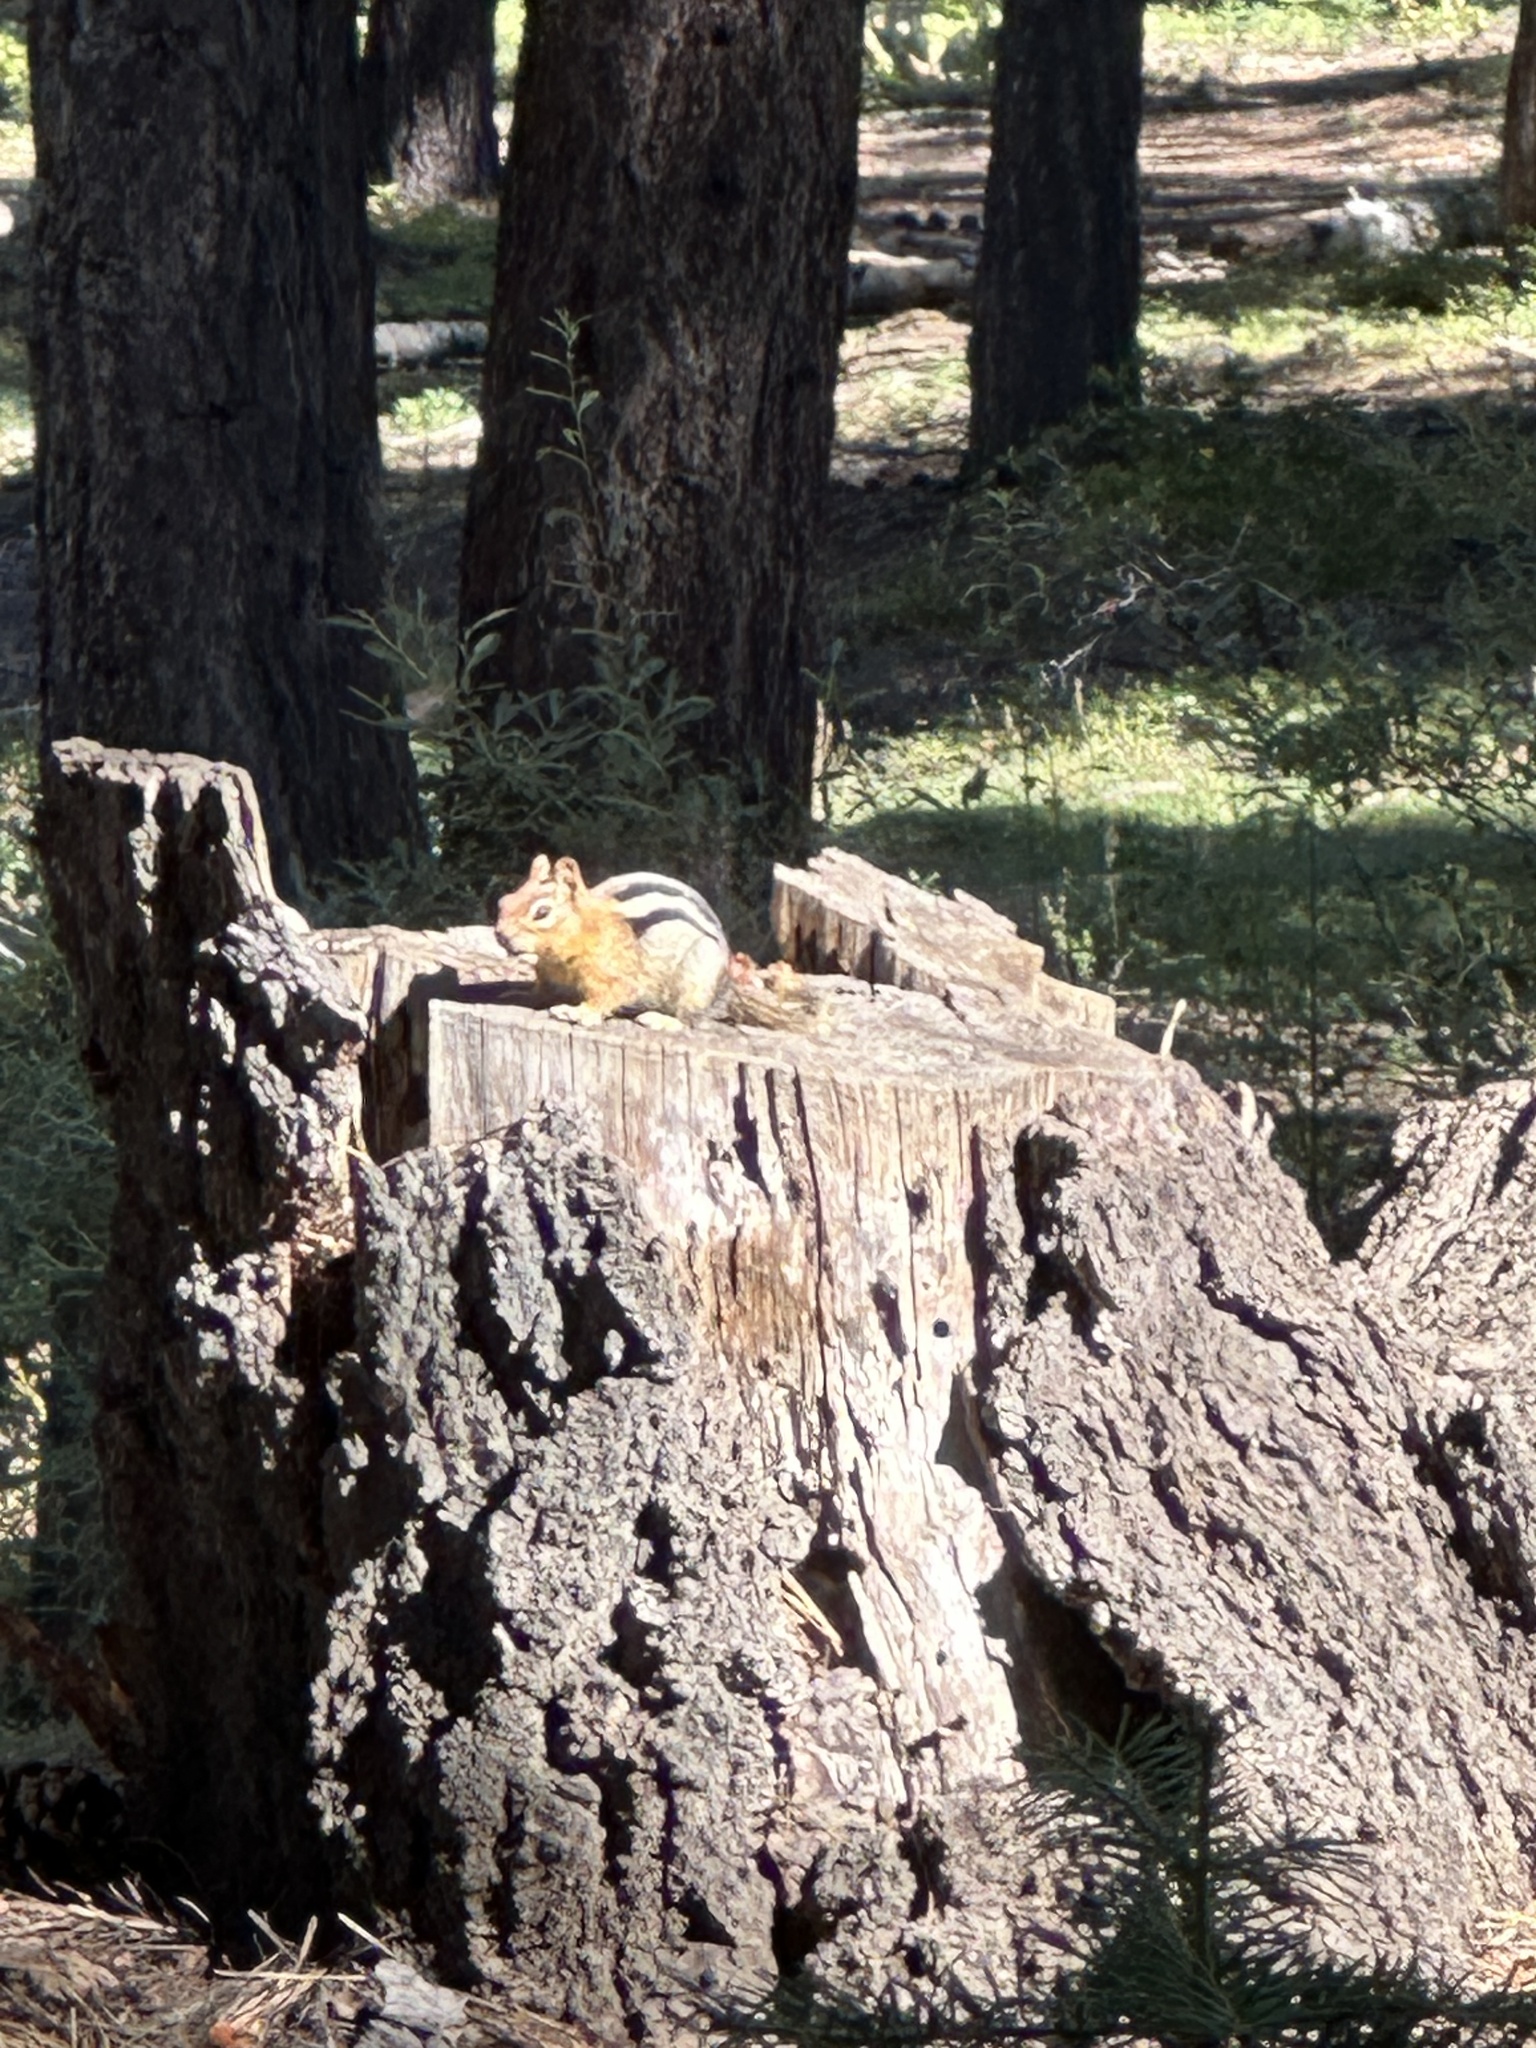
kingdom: Animalia
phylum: Chordata
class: Mammalia
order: Rodentia
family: Sciuridae
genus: Callospermophilus
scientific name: Callospermophilus lateralis
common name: Golden-mantled ground squirrel
